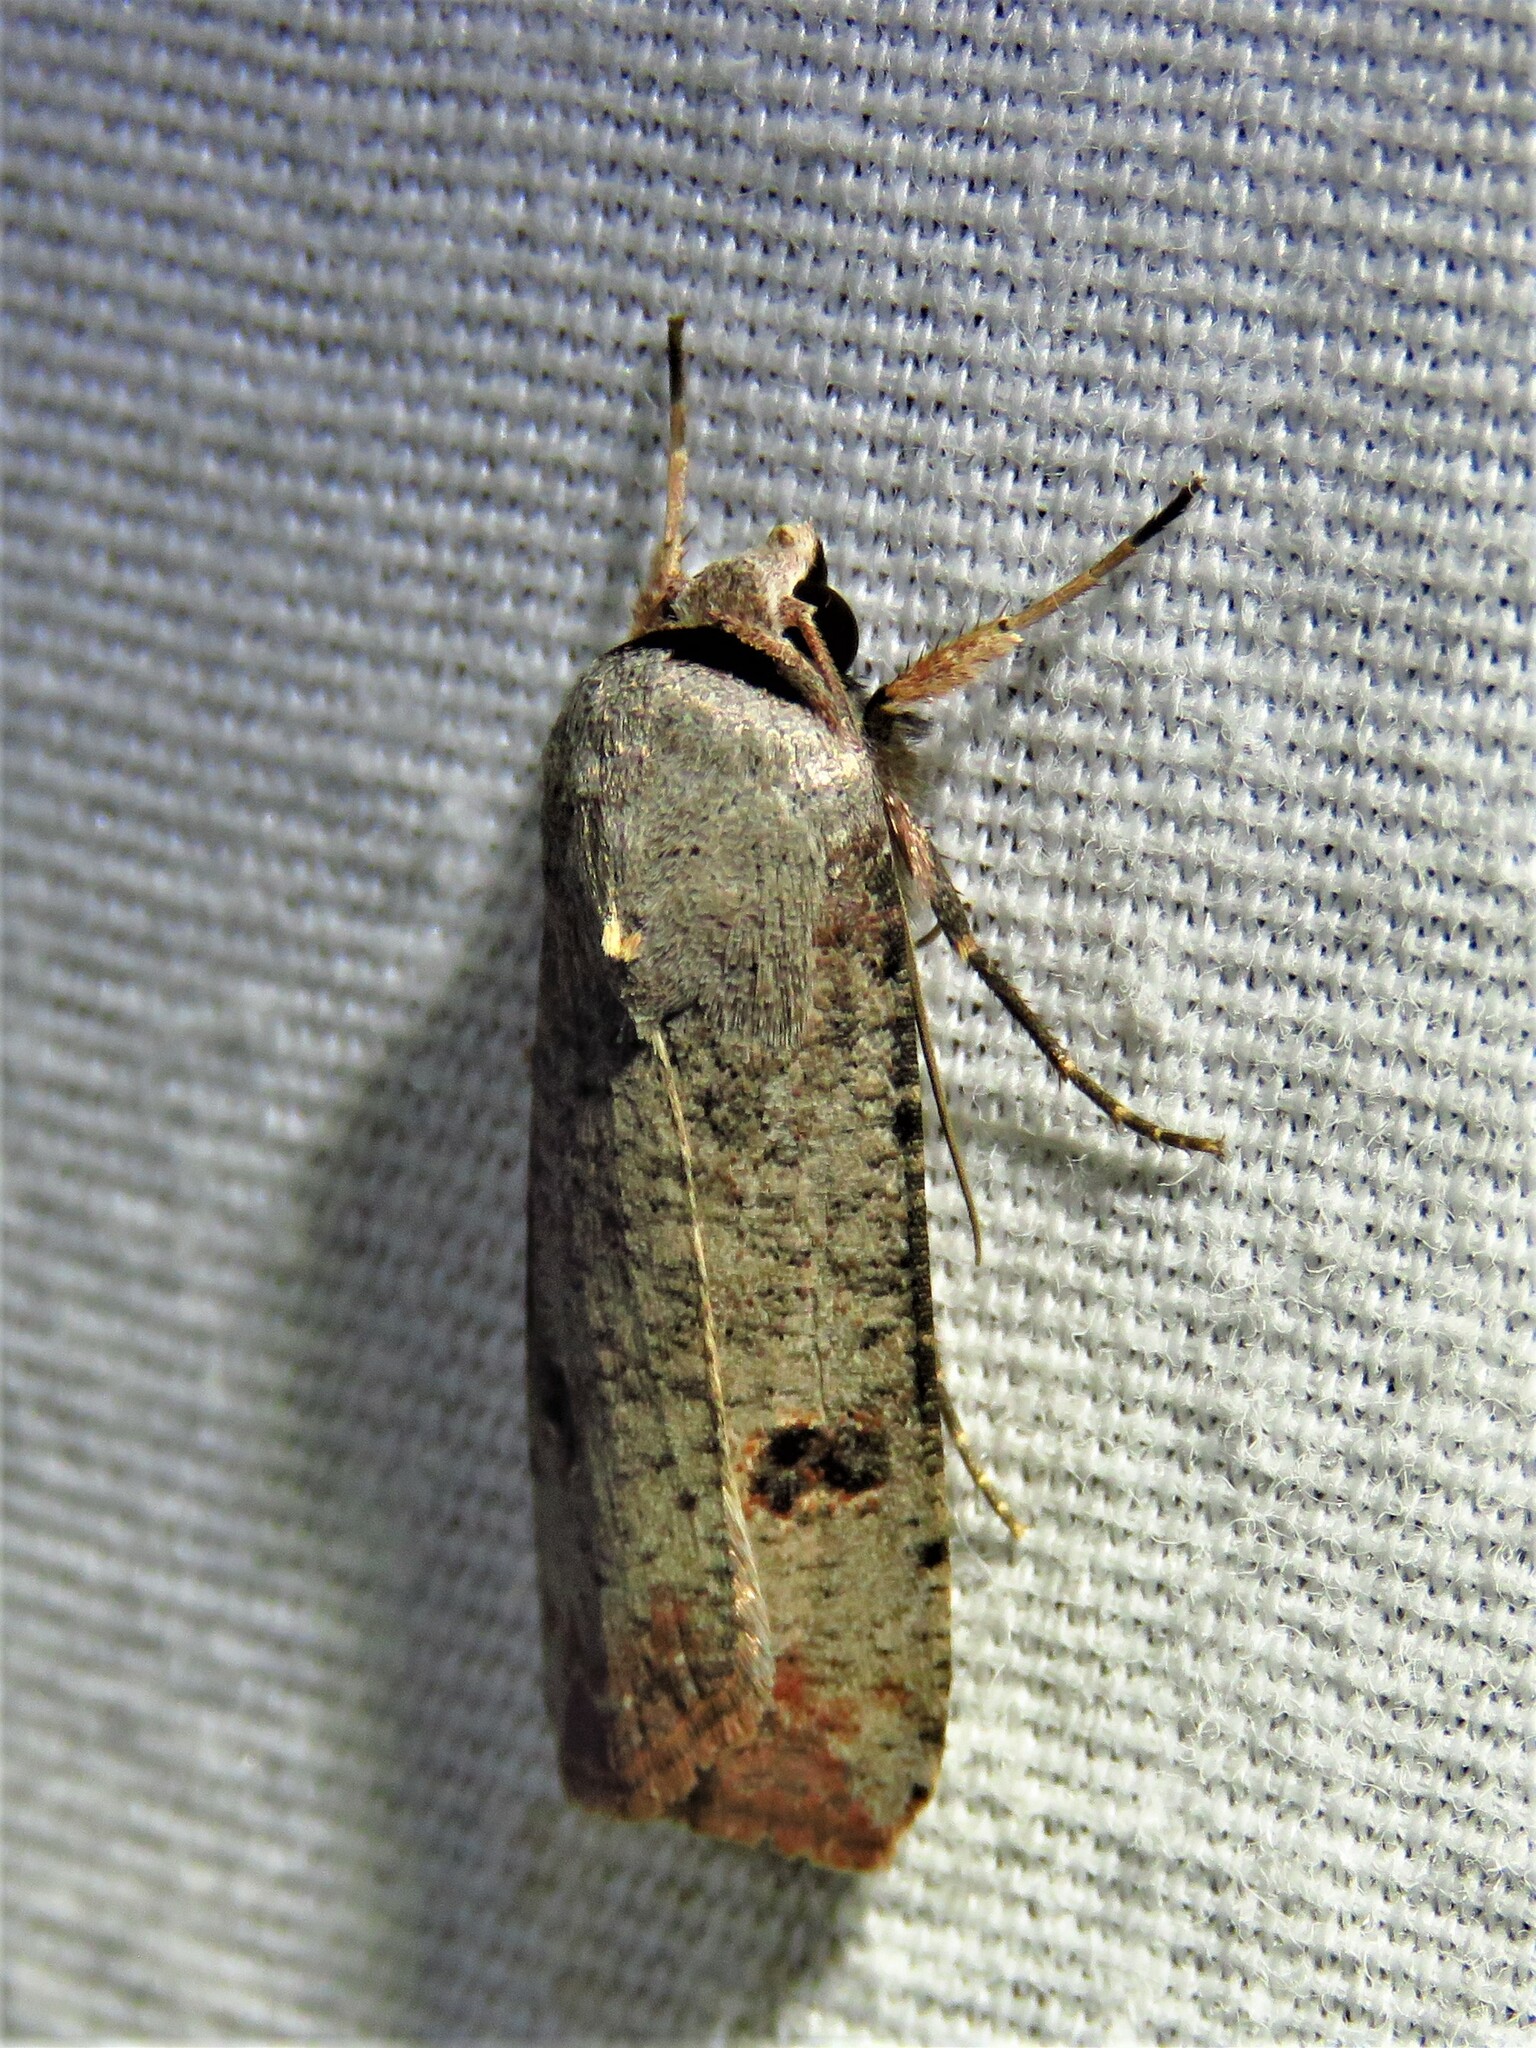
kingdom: Animalia
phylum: Arthropoda
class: Insecta
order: Lepidoptera
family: Noctuidae
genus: Anicla
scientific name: Anicla infecta
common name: Green cutworm
